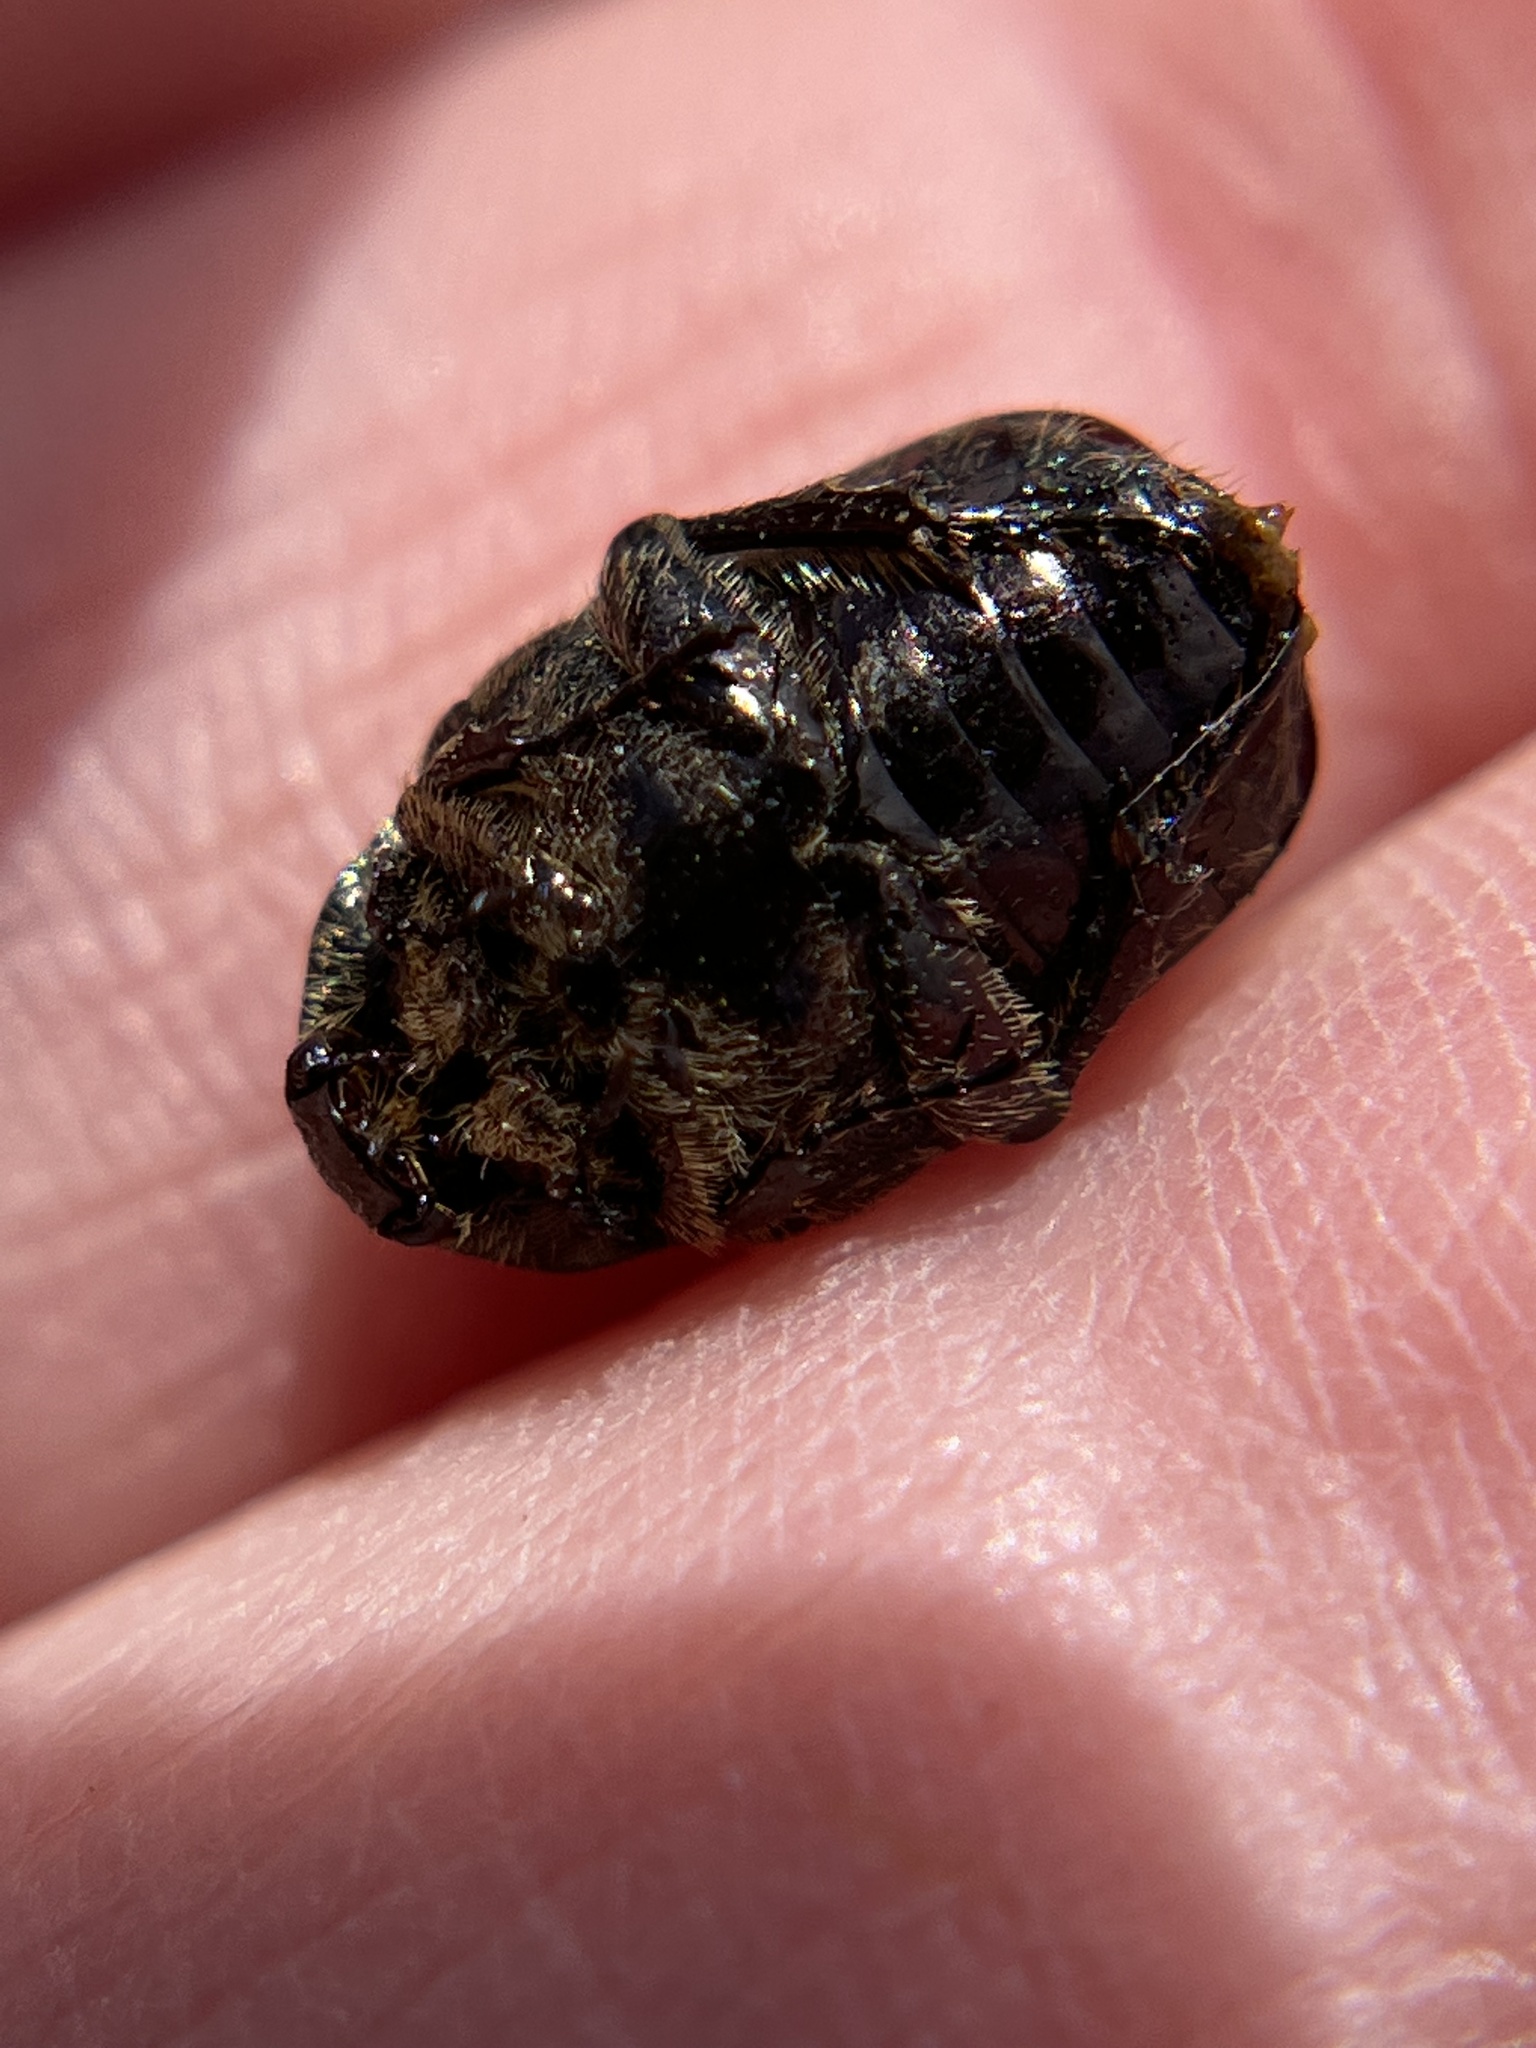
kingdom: Animalia
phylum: Arthropoda
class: Insecta
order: Coleoptera
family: Scarabaeidae
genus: Euphoria
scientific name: Euphoria sepulcralis
